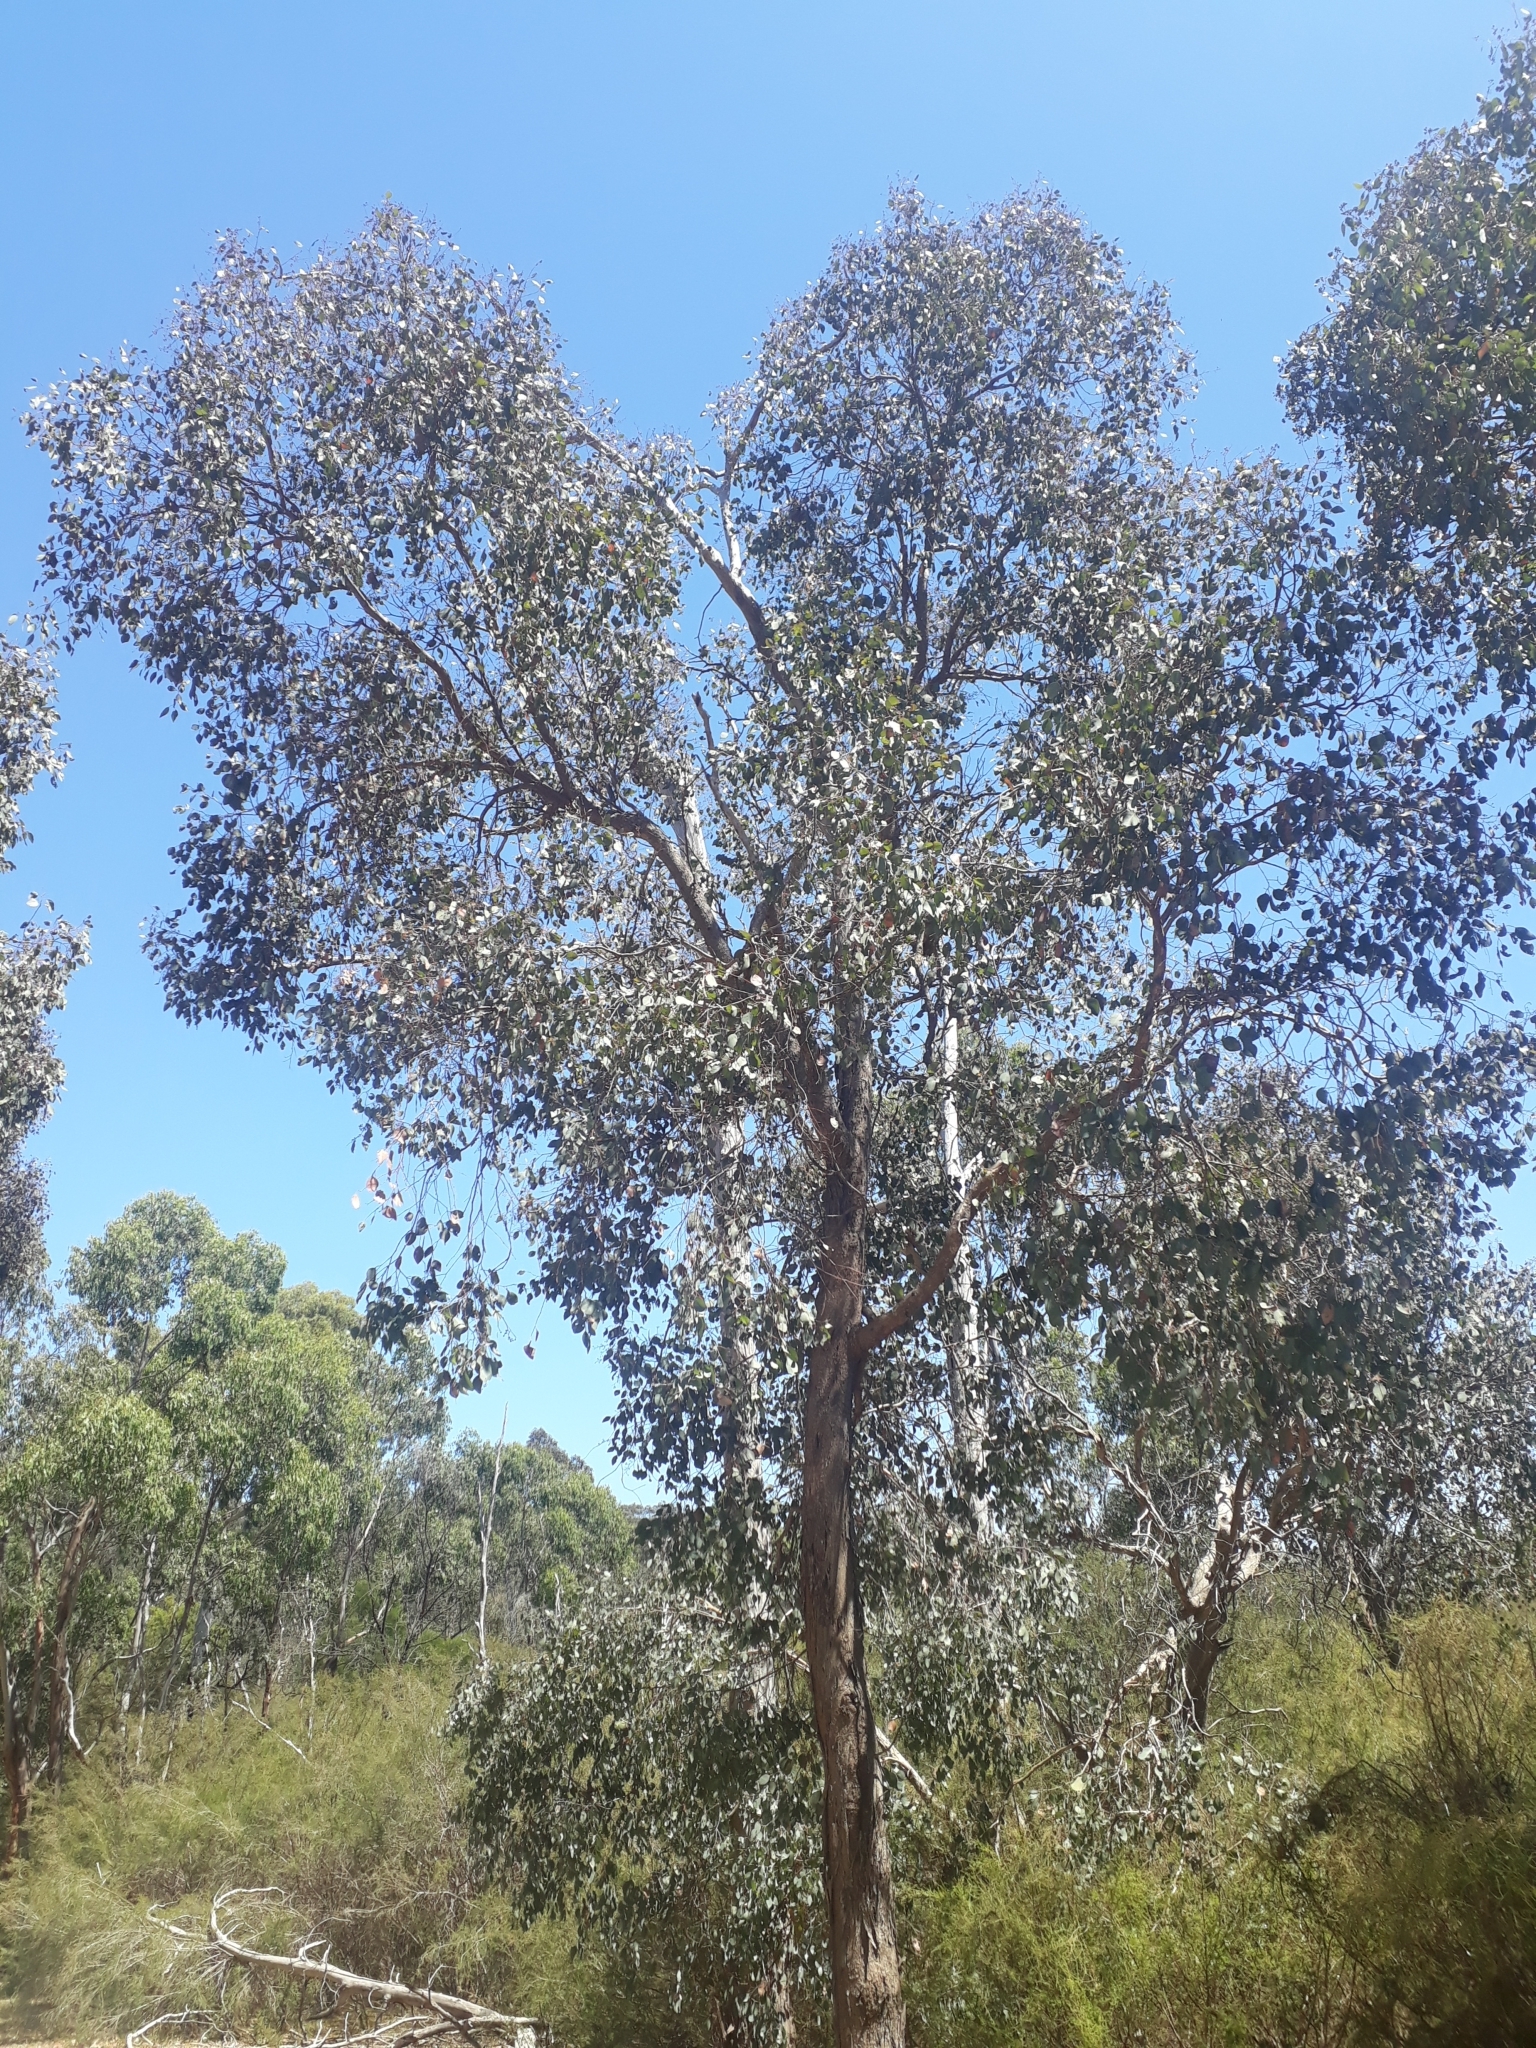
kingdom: Plantae
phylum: Tracheophyta
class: Magnoliopsida
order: Myrtales
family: Myrtaceae
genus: Eucalyptus
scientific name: Eucalyptus polyanthemos
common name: Red-box
